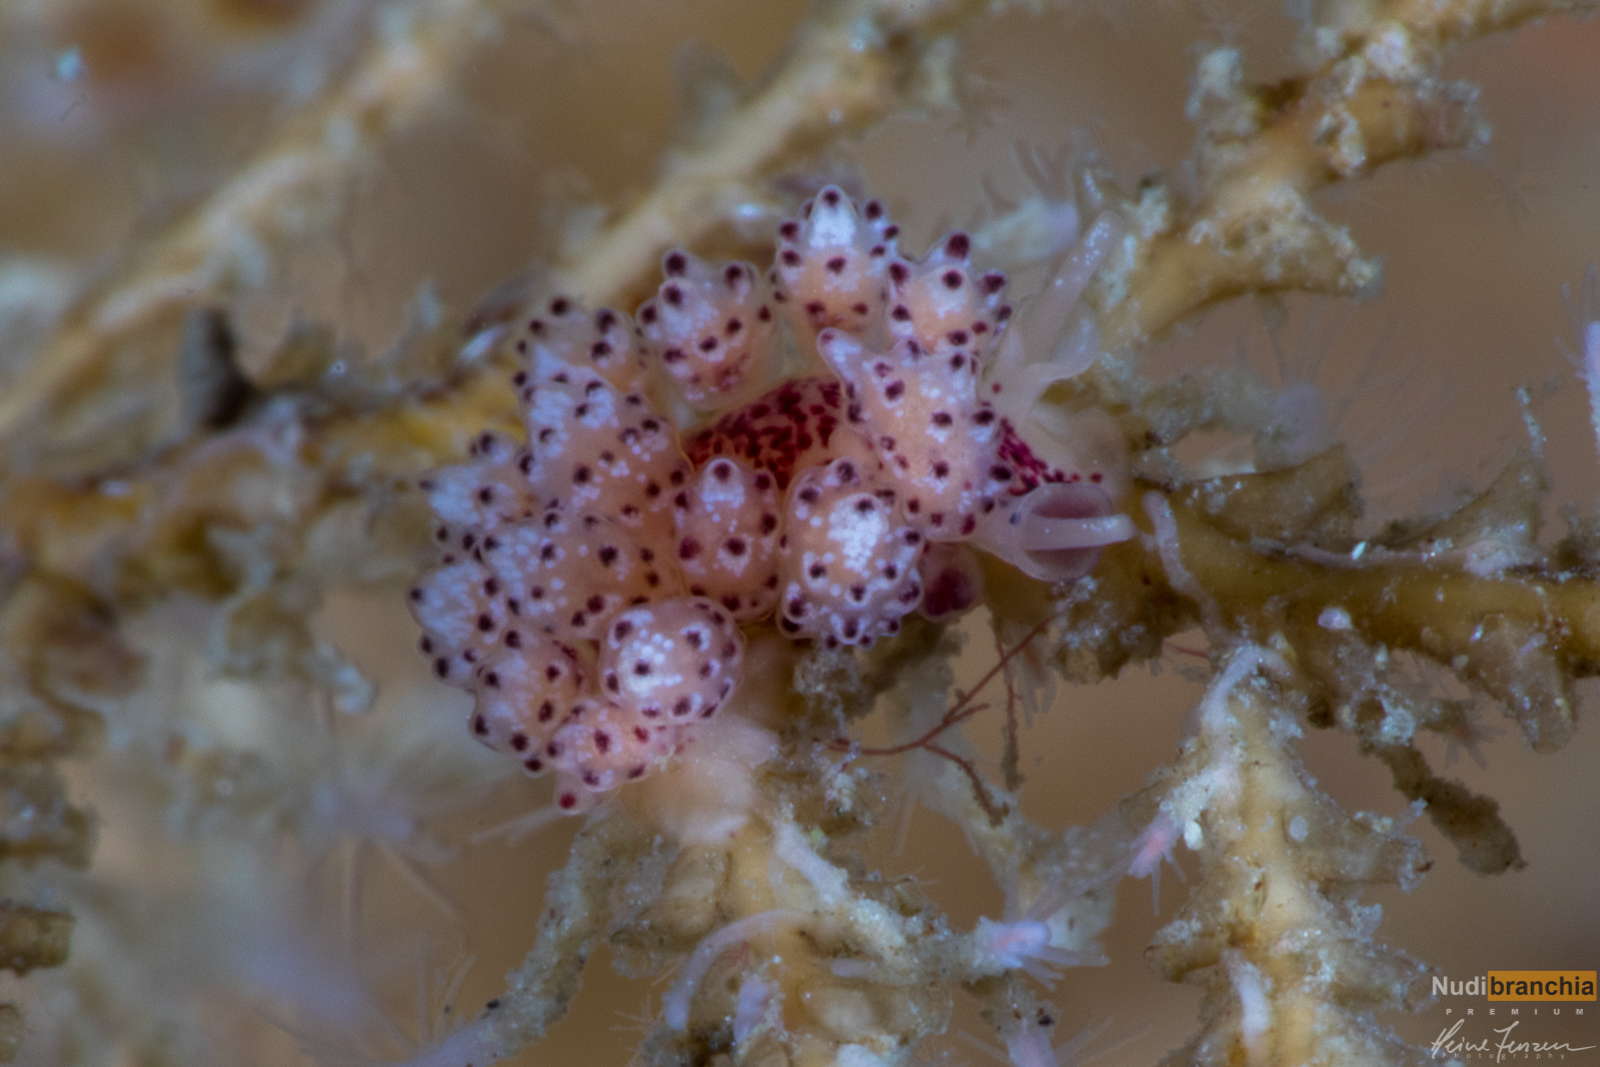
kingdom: Animalia
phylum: Mollusca
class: Gastropoda
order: Nudibranchia
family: Dotidae
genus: Doto
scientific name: Doto coronata
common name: Coronate doto
